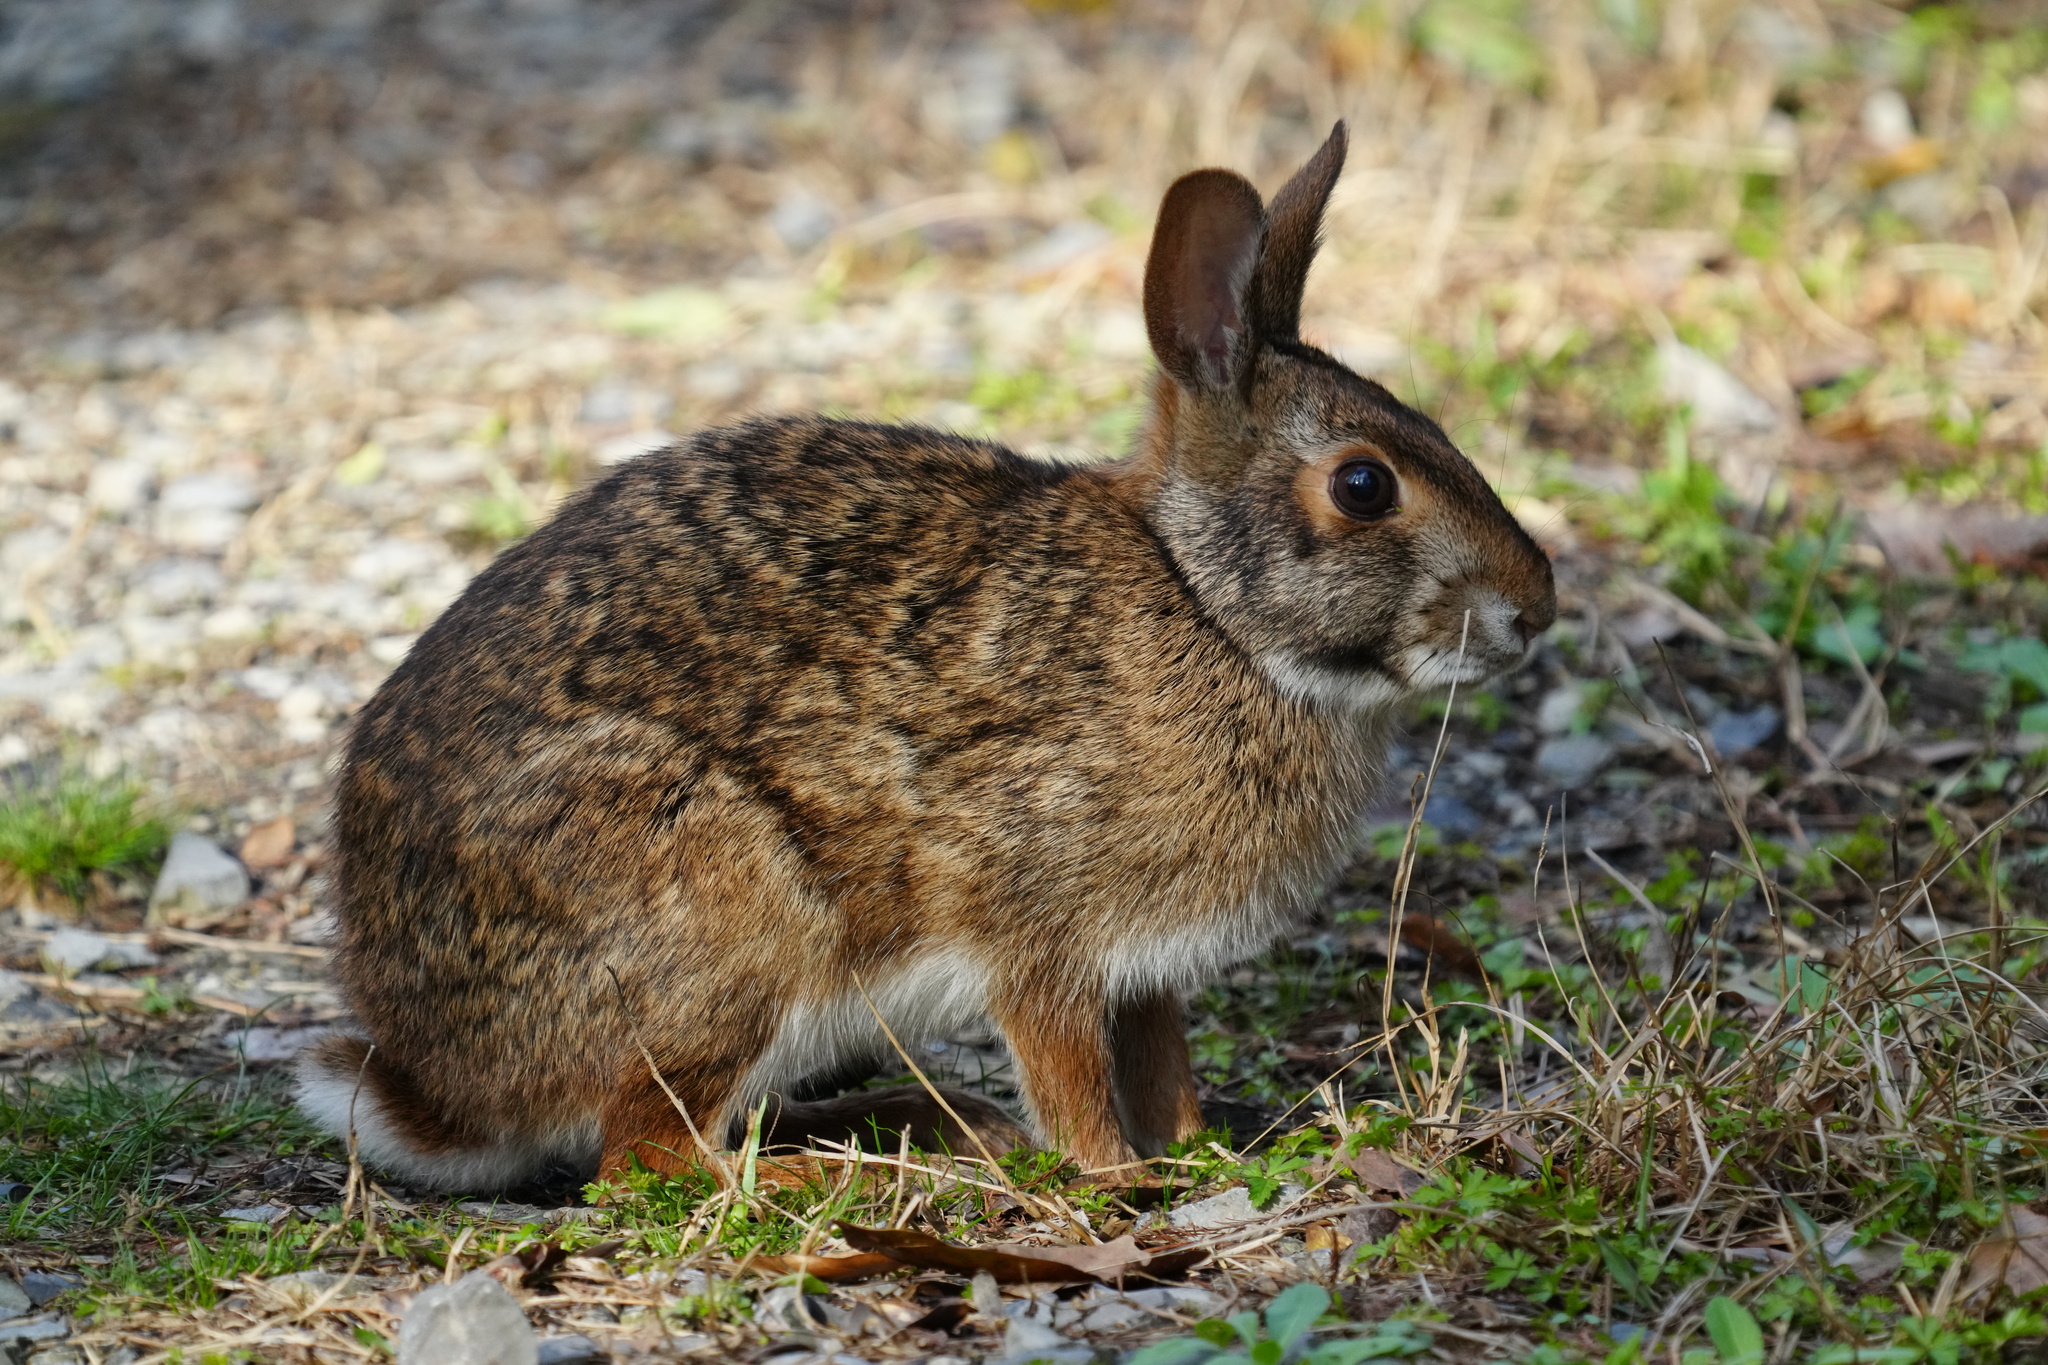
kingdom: Animalia
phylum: Chordata
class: Mammalia
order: Lagomorpha
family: Leporidae
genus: Sylvilagus
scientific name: Sylvilagus aquaticus
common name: Swamp rabbit
